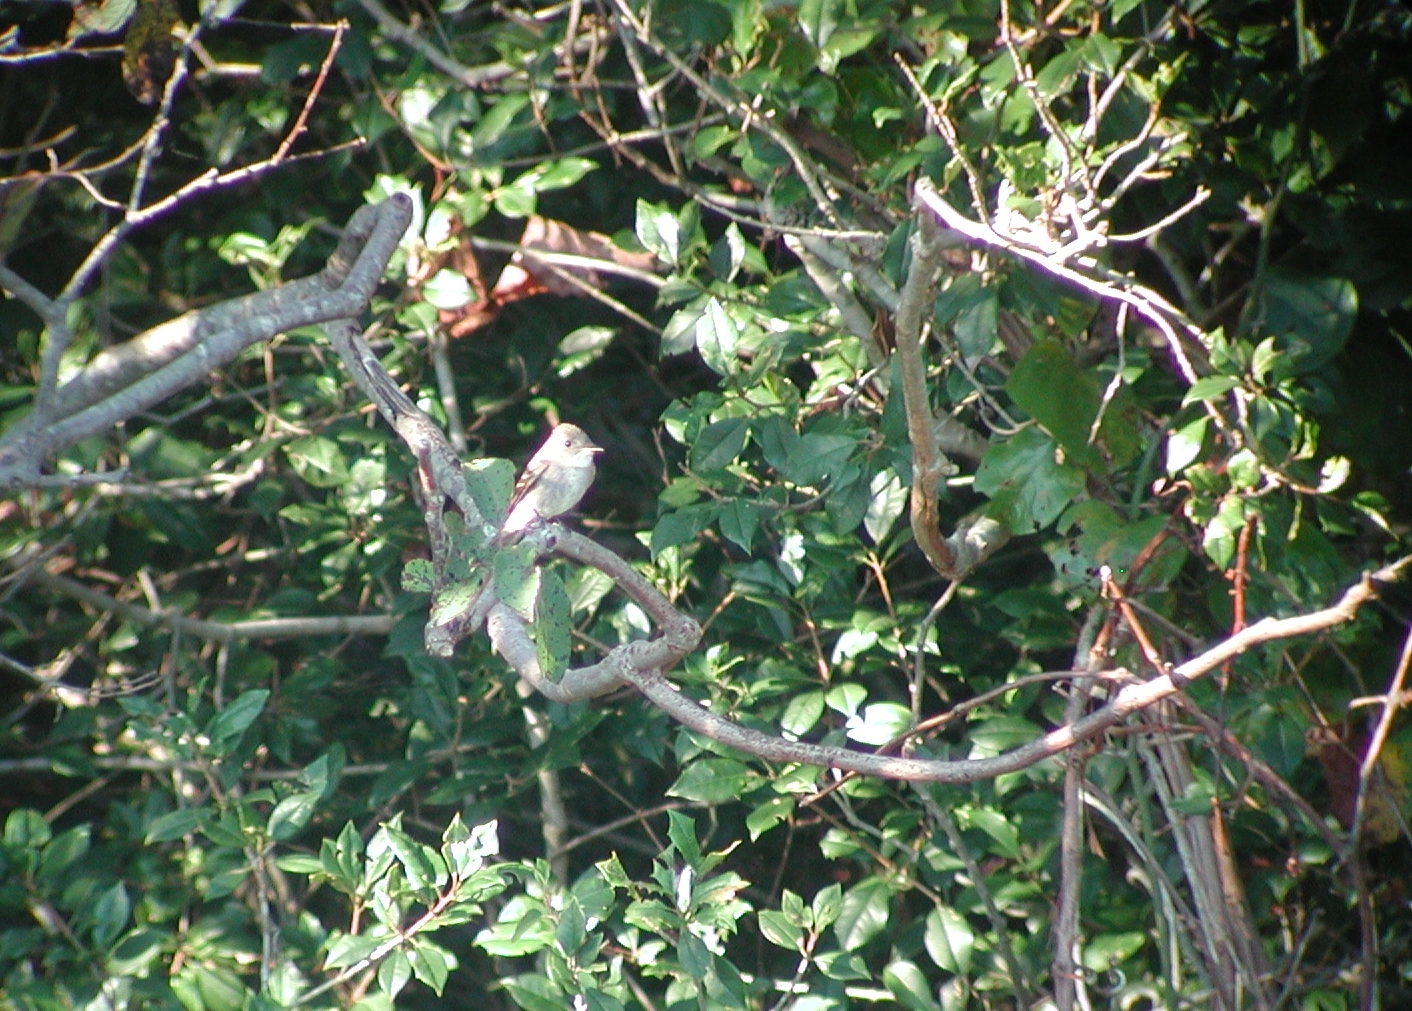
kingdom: Animalia
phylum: Chordata
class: Aves
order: Passeriformes
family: Tyrannidae
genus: Contopus
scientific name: Contopus virens
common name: Eastern wood-pewee
